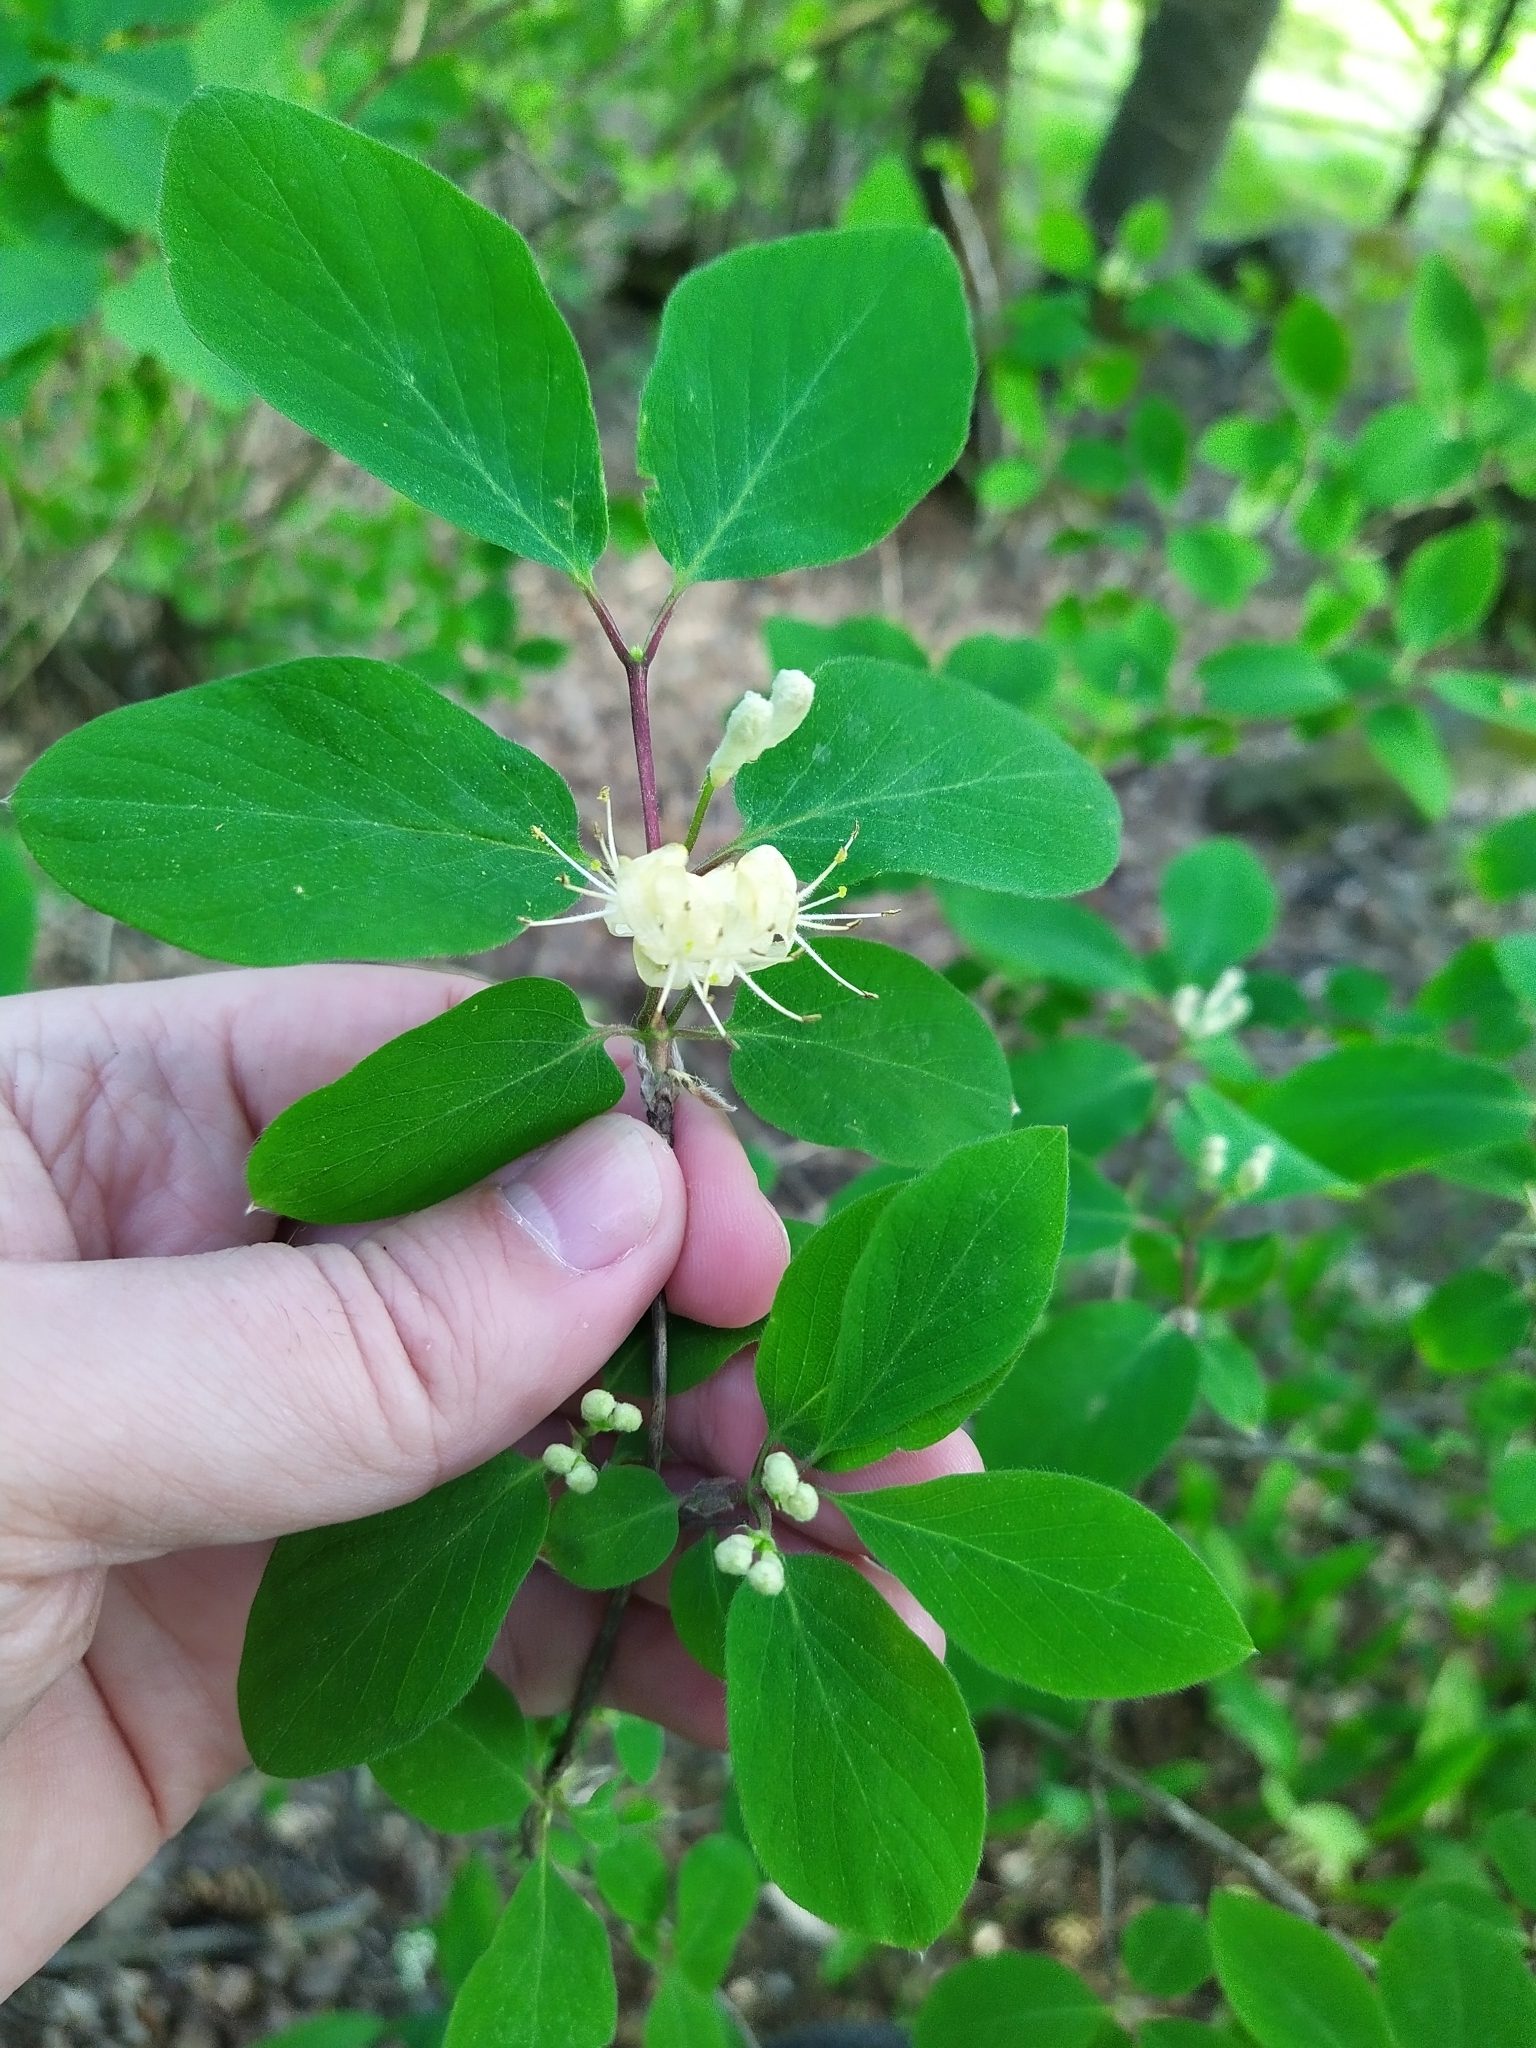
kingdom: Plantae
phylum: Tracheophyta
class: Magnoliopsida
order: Dipsacales
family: Caprifoliaceae
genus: Lonicera
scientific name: Lonicera xylosteum
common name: Fly honeysuckle
